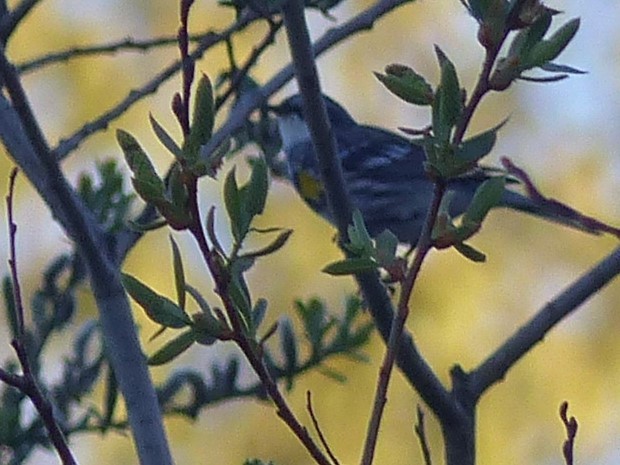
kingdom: Animalia
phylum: Chordata
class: Aves
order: Passeriformes
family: Parulidae
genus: Setophaga
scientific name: Setophaga coronata
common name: Myrtle warbler
